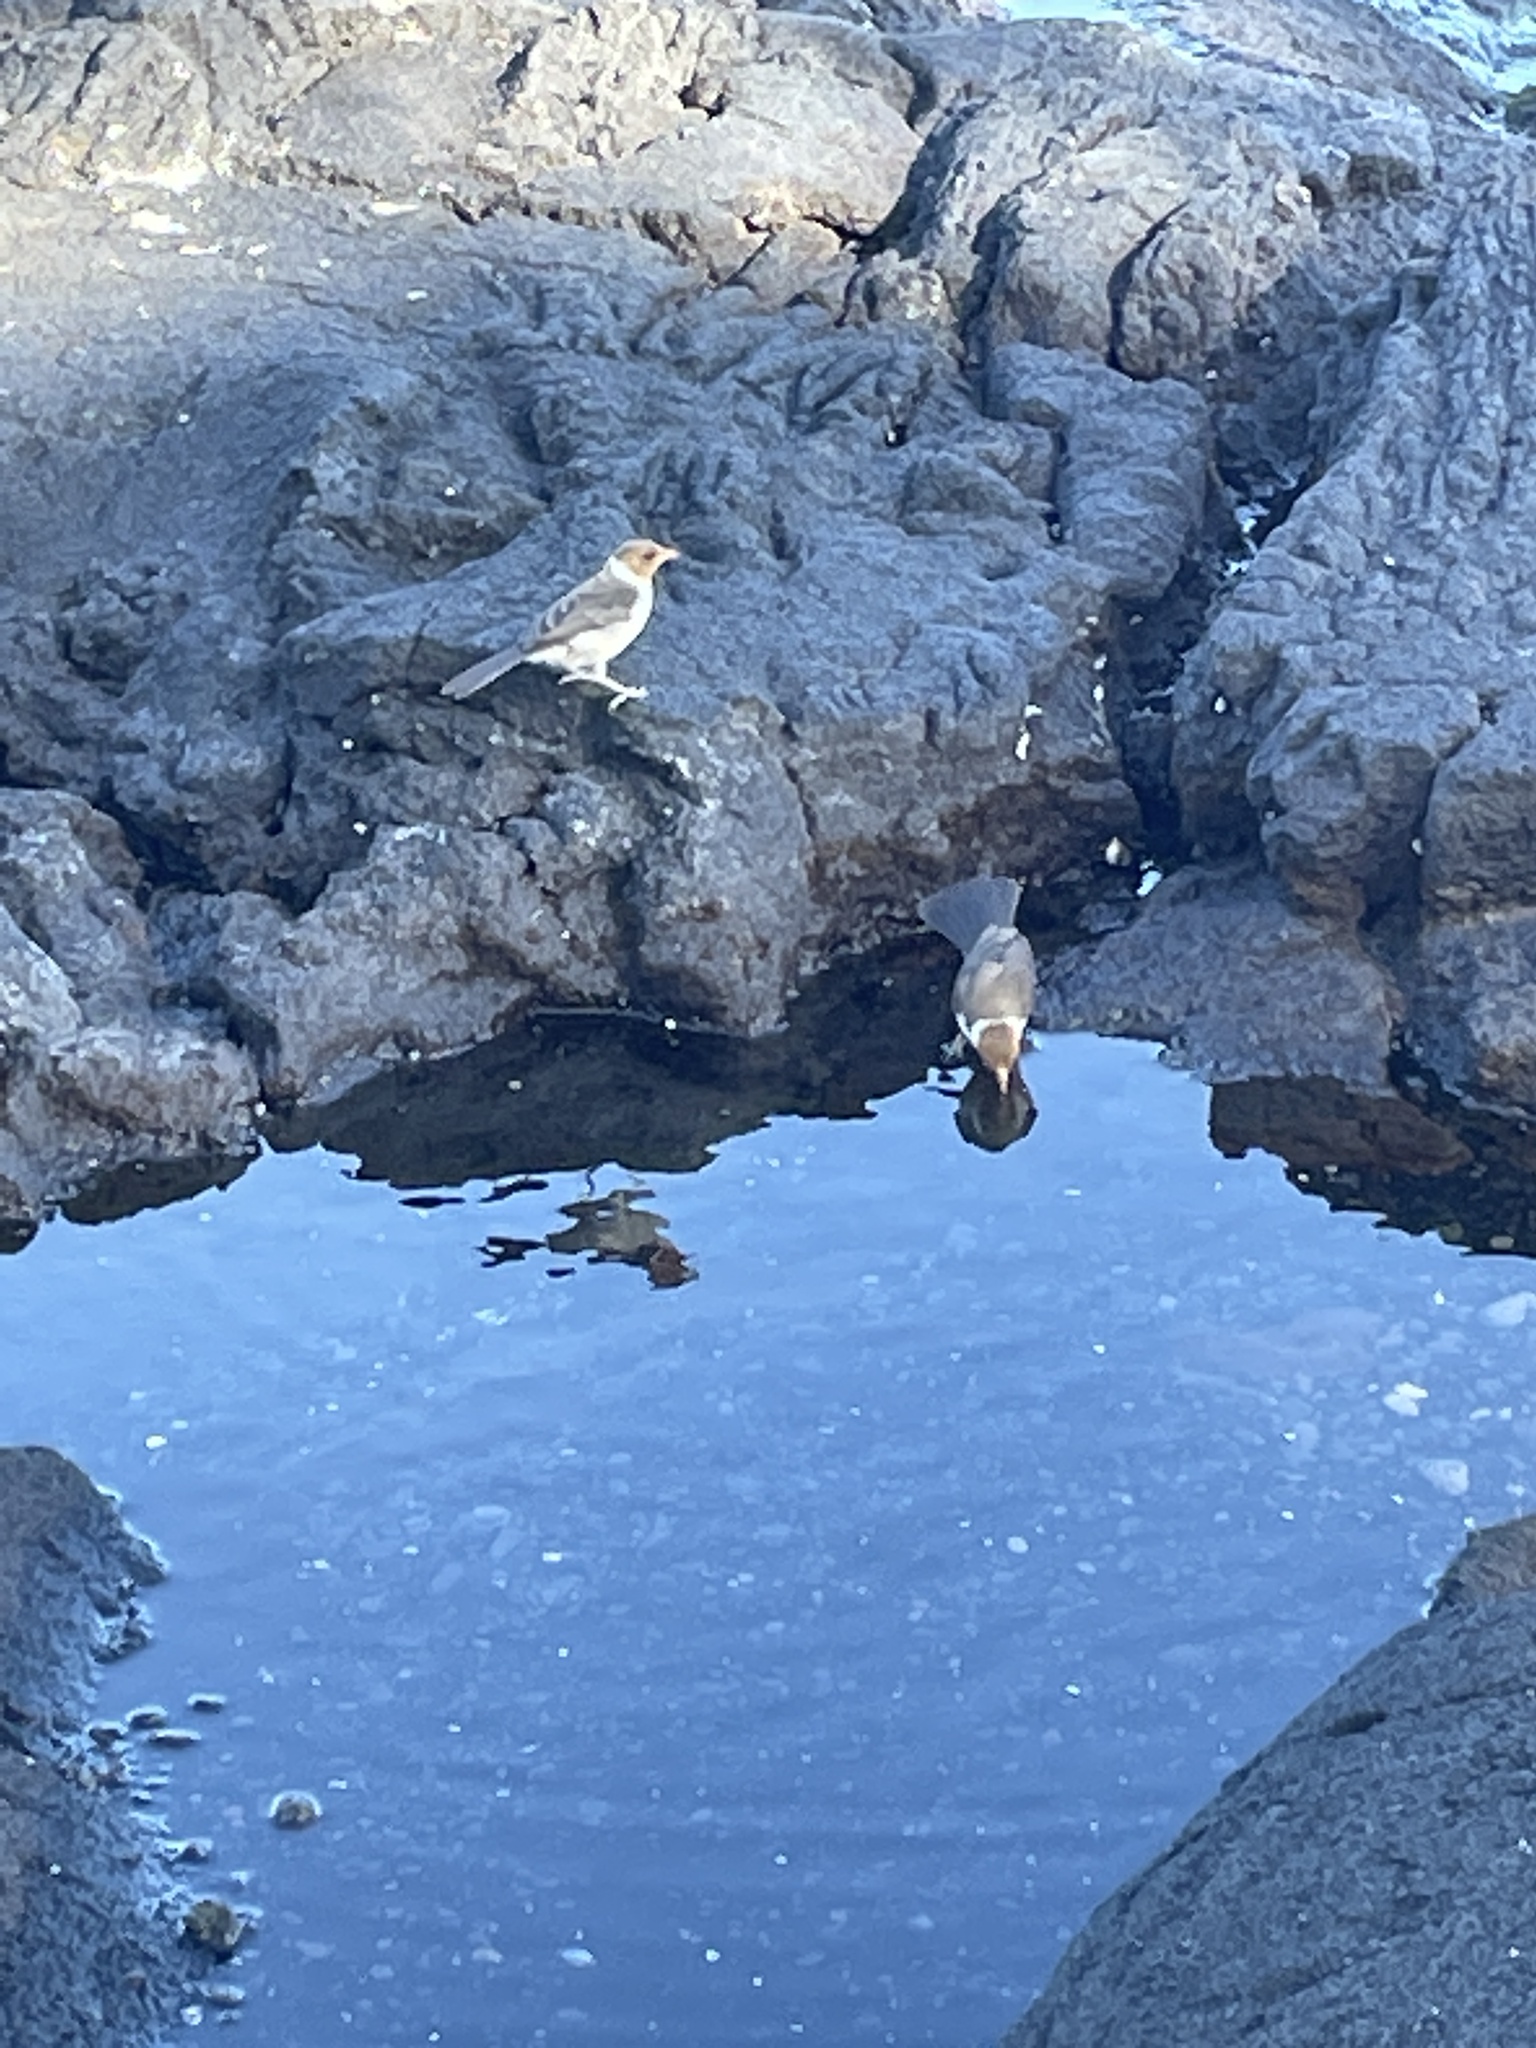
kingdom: Animalia
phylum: Chordata
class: Aves
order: Passeriformes
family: Thraupidae
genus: Paroaria
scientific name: Paroaria capitata
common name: Yellow-billed cardinal
